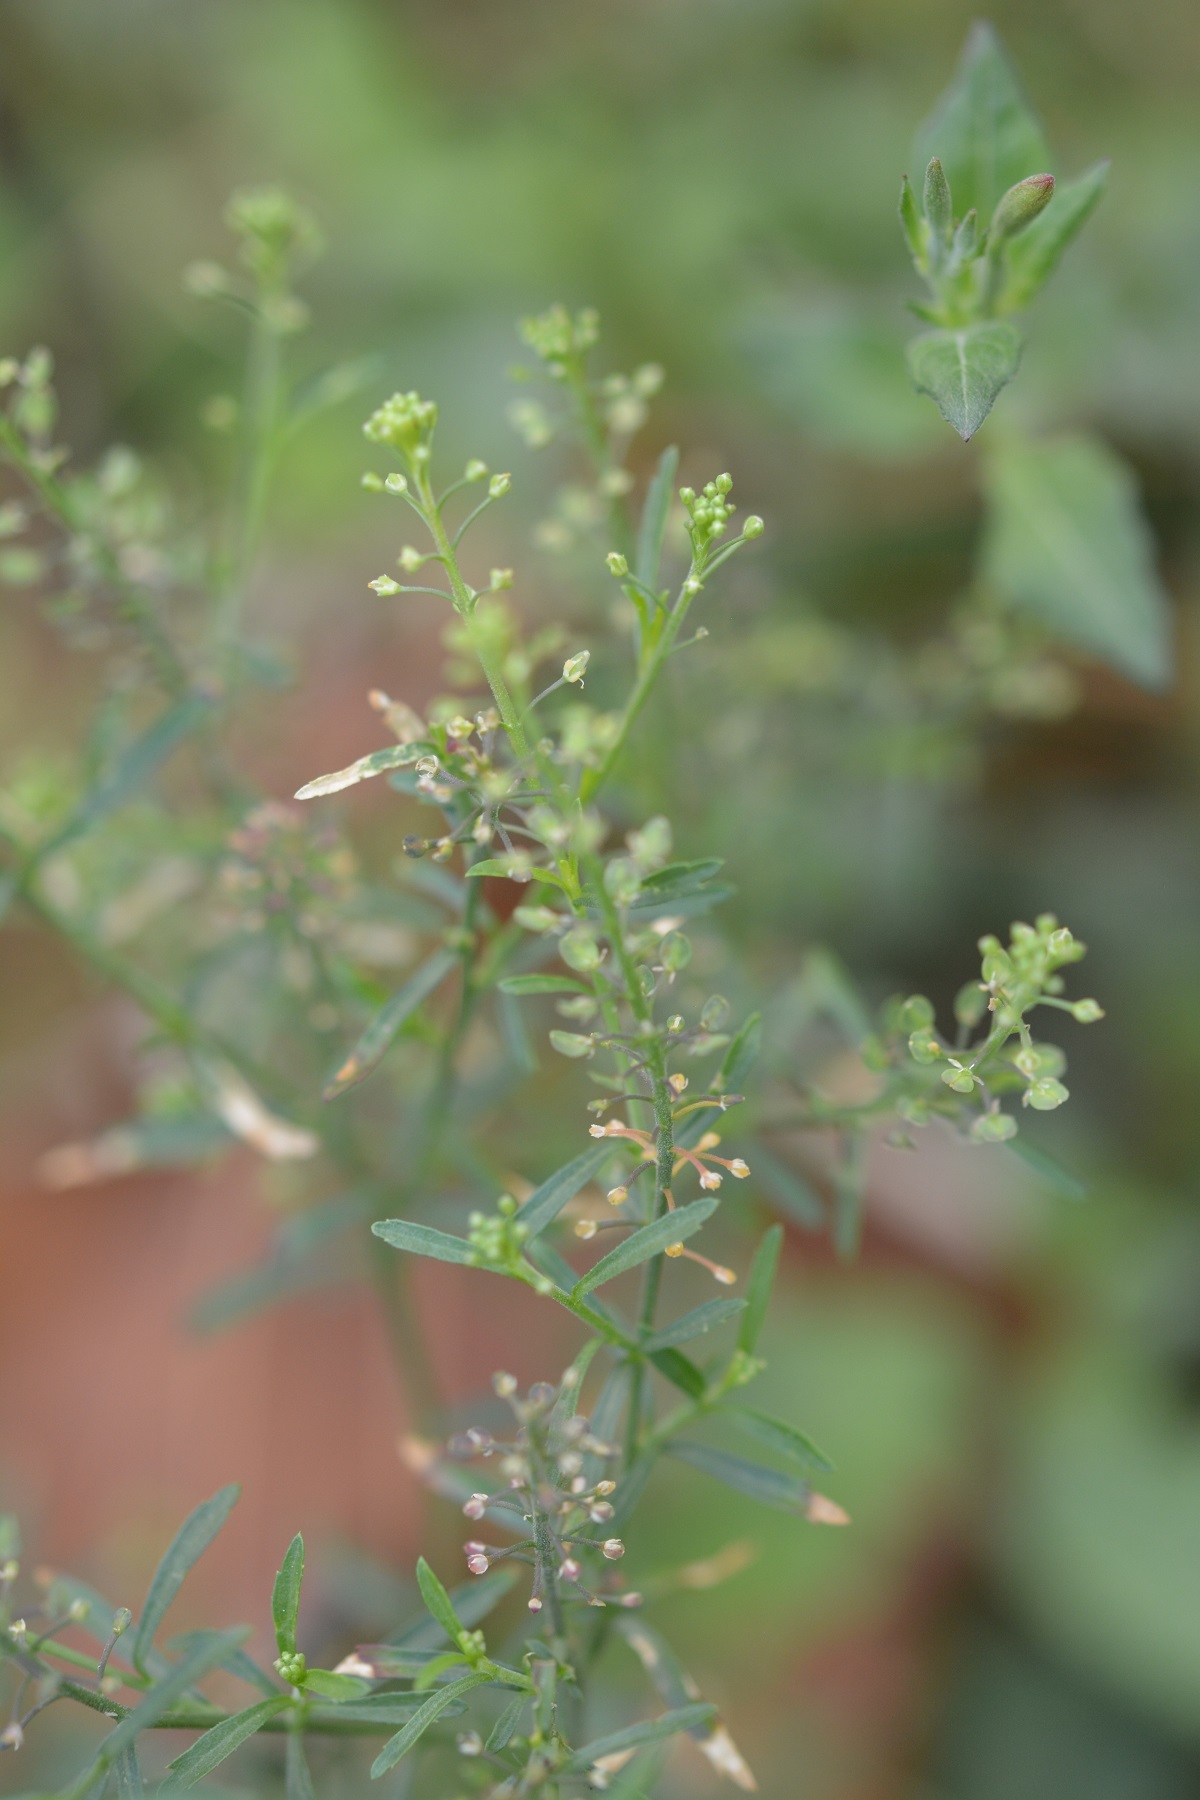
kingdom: Plantae
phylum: Tracheophyta
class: Magnoliopsida
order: Brassicales
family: Brassicaceae
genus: Lepidium
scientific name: Lepidium virginicum
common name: Least pepperwort
